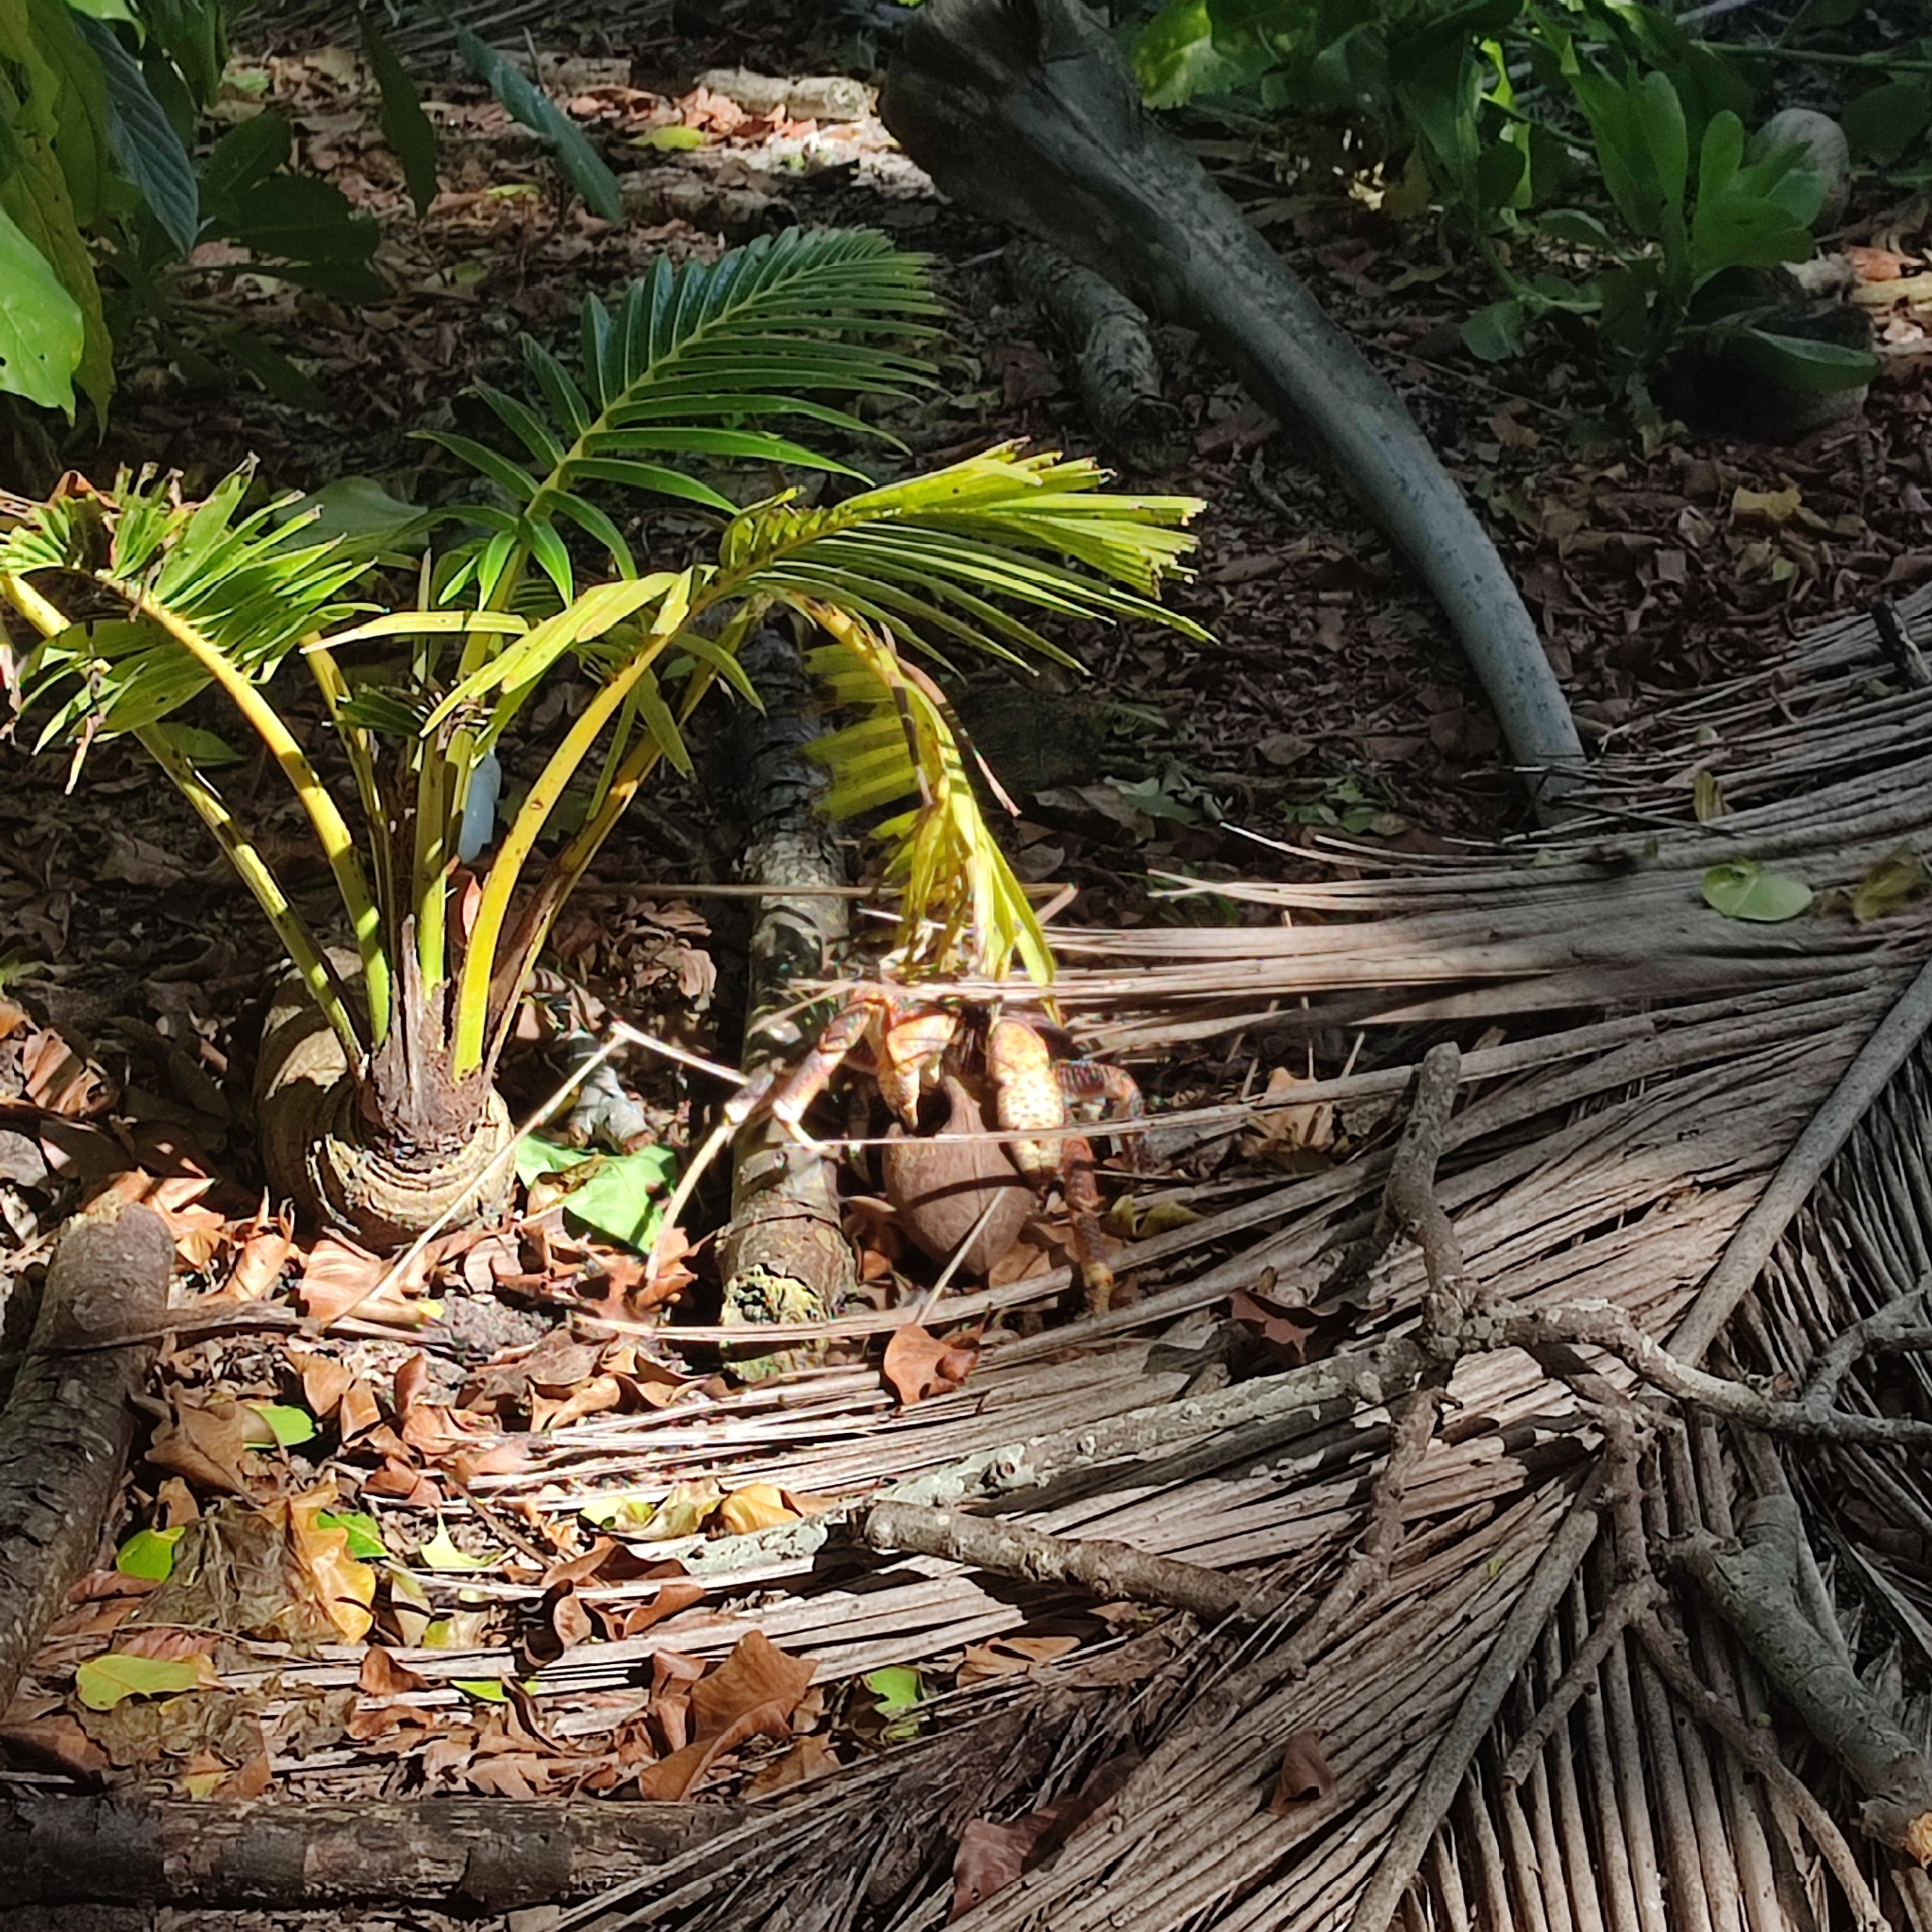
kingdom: Animalia
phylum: Arthropoda
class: Malacostraca
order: Decapoda
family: Coenobitidae
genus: Birgus
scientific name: Birgus latro
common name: Coconut crab
